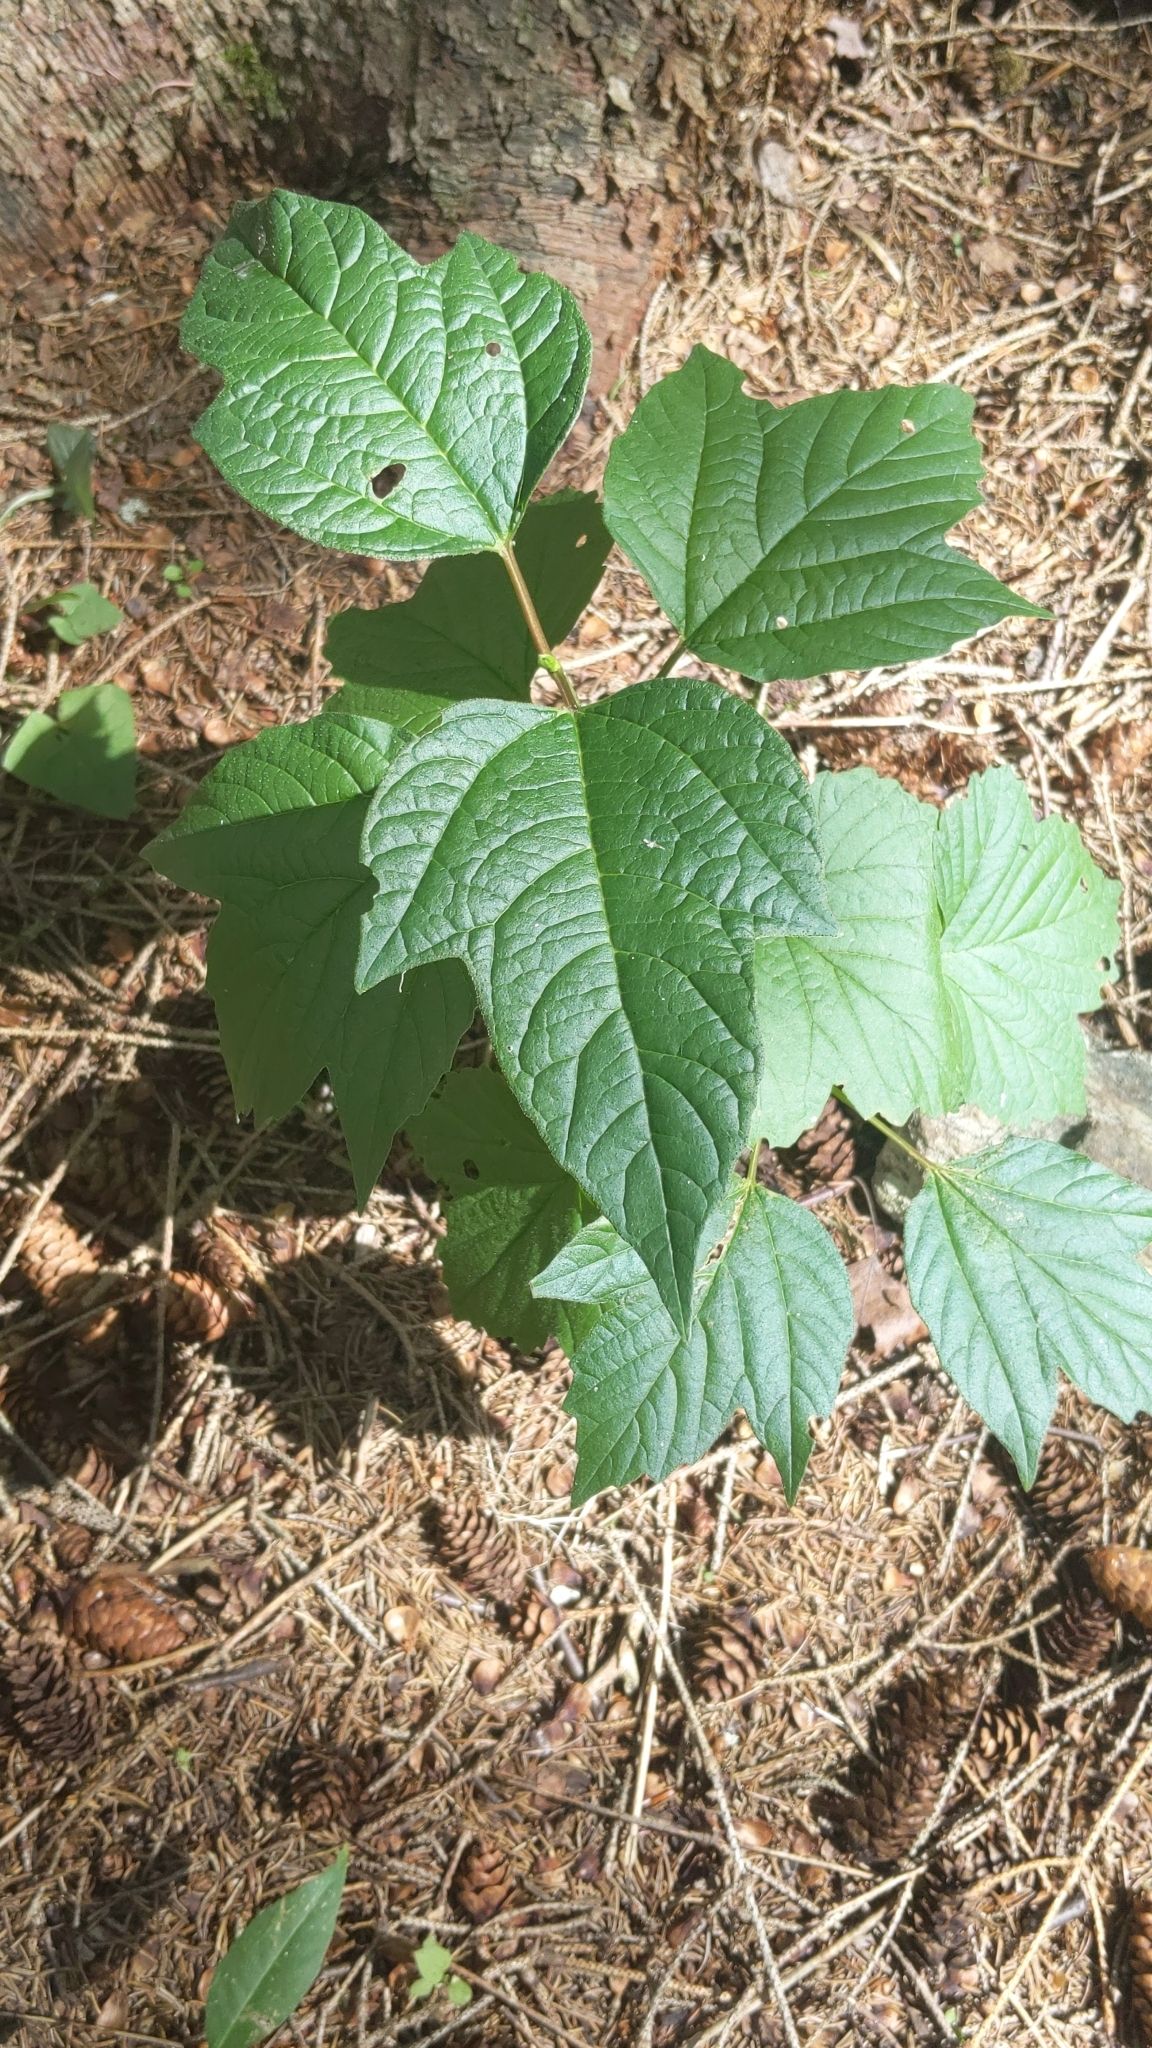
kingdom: Plantae
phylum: Tracheophyta
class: Magnoliopsida
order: Dipsacales
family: Viburnaceae
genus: Viburnum
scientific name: Viburnum opulus
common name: Guelder-rose
